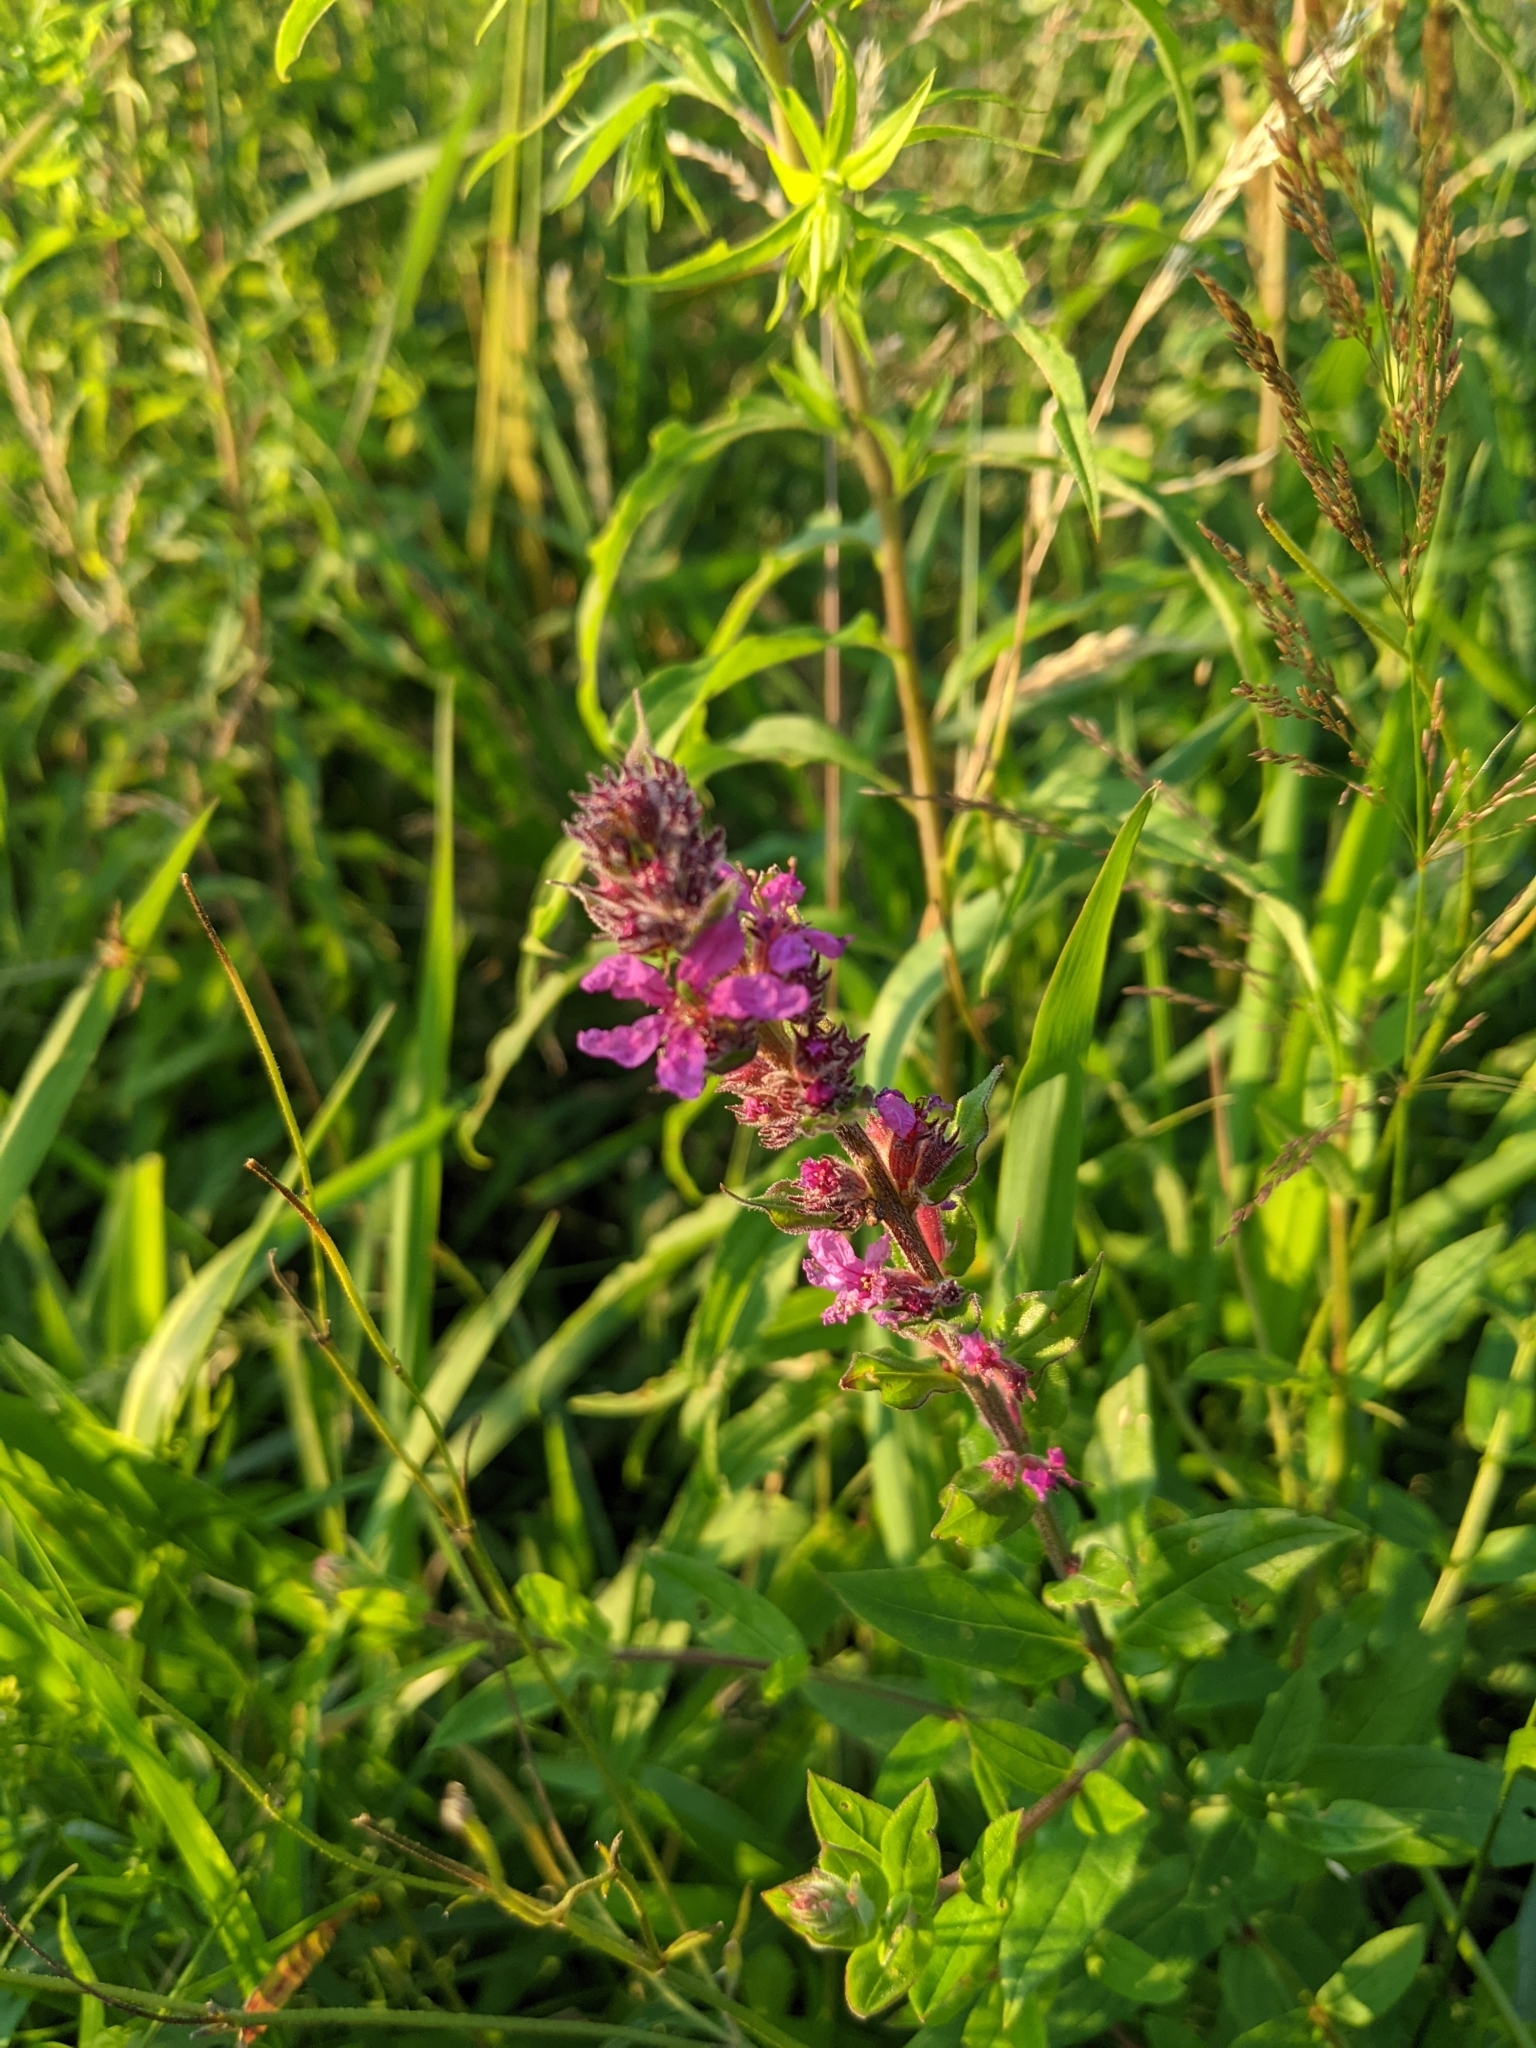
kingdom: Plantae
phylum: Tracheophyta
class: Magnoliopsida
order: Myrtales
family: Lythraceae
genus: Lythrum
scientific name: Lythrum salicaria
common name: Purple loosestrife
